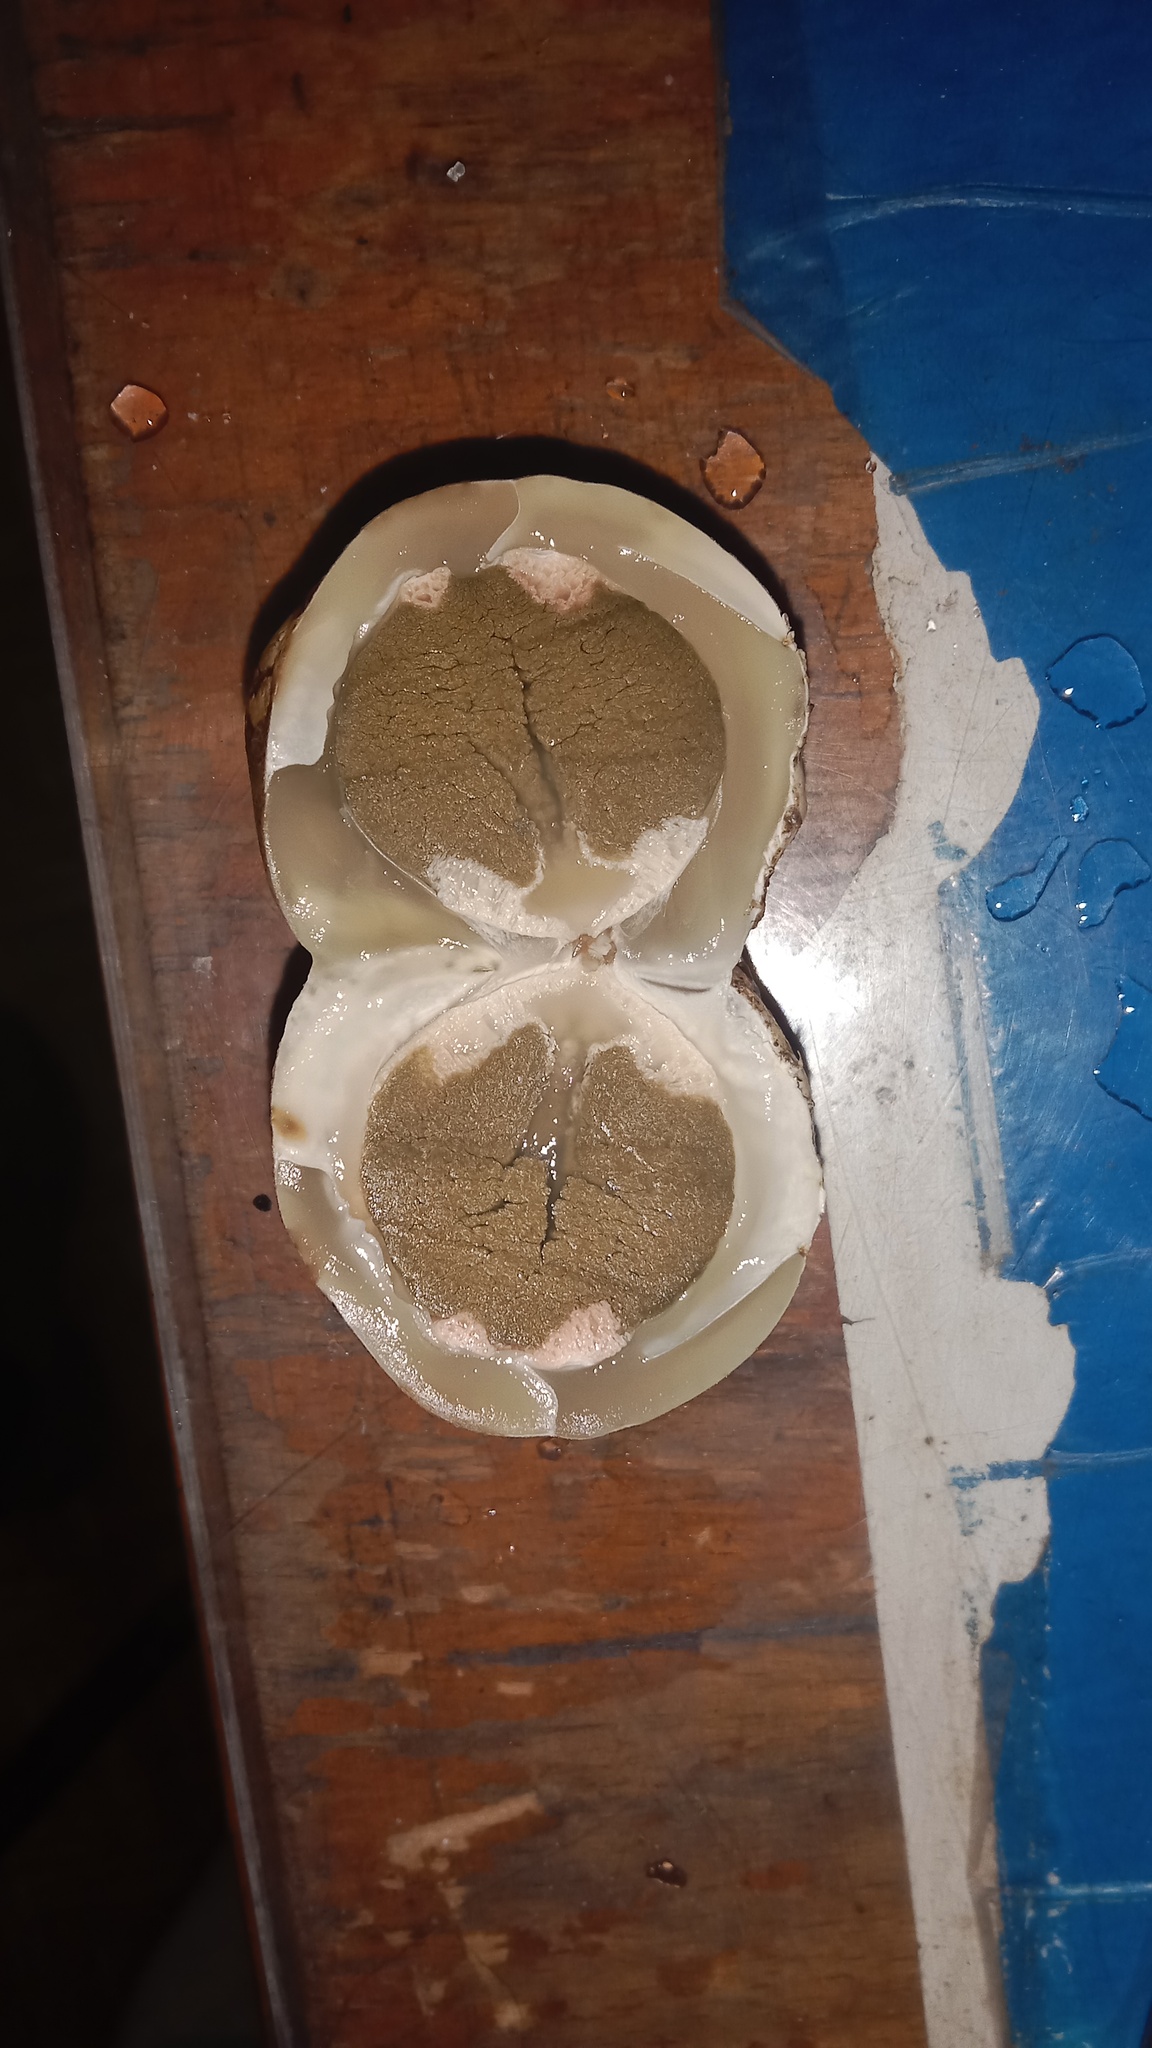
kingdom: Fungi
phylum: Basidiomycota
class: Agaricomycetes
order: Phallales
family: Phallaceae
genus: Clathrus
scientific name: Clathrus archeri
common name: Devil's fingers
